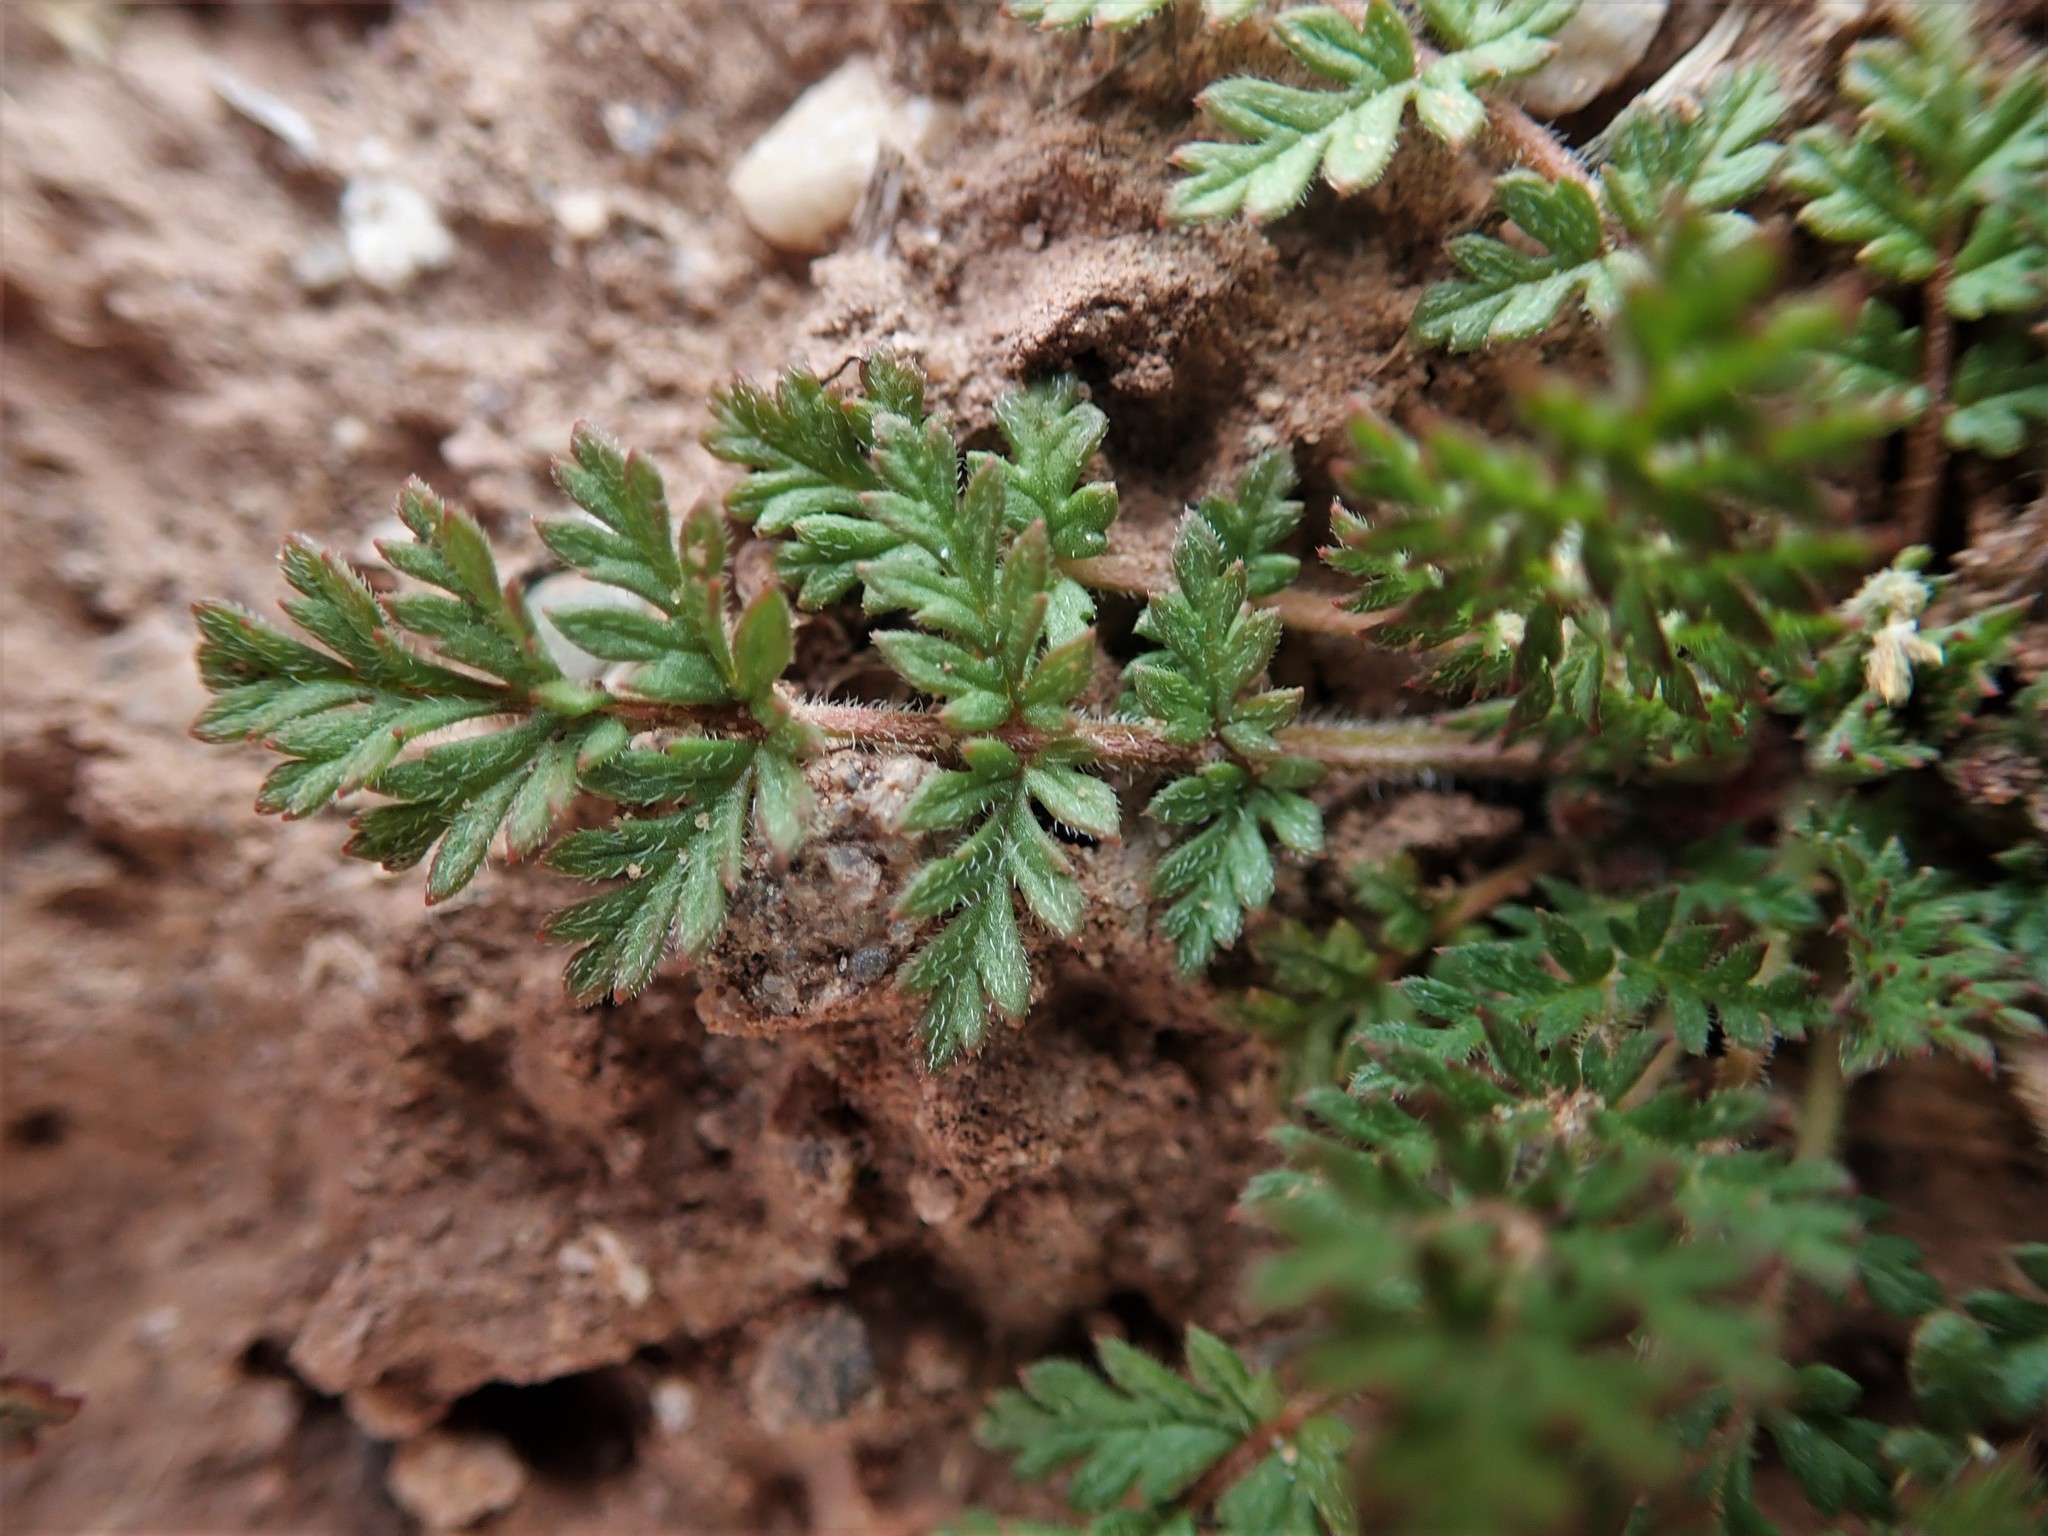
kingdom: Plantae
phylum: Tracheophyta
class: Magnoliopsida
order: Geraniales
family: Geraniaceae
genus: Erodium
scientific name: Erodium cicutarium
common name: Common stork's-bill
